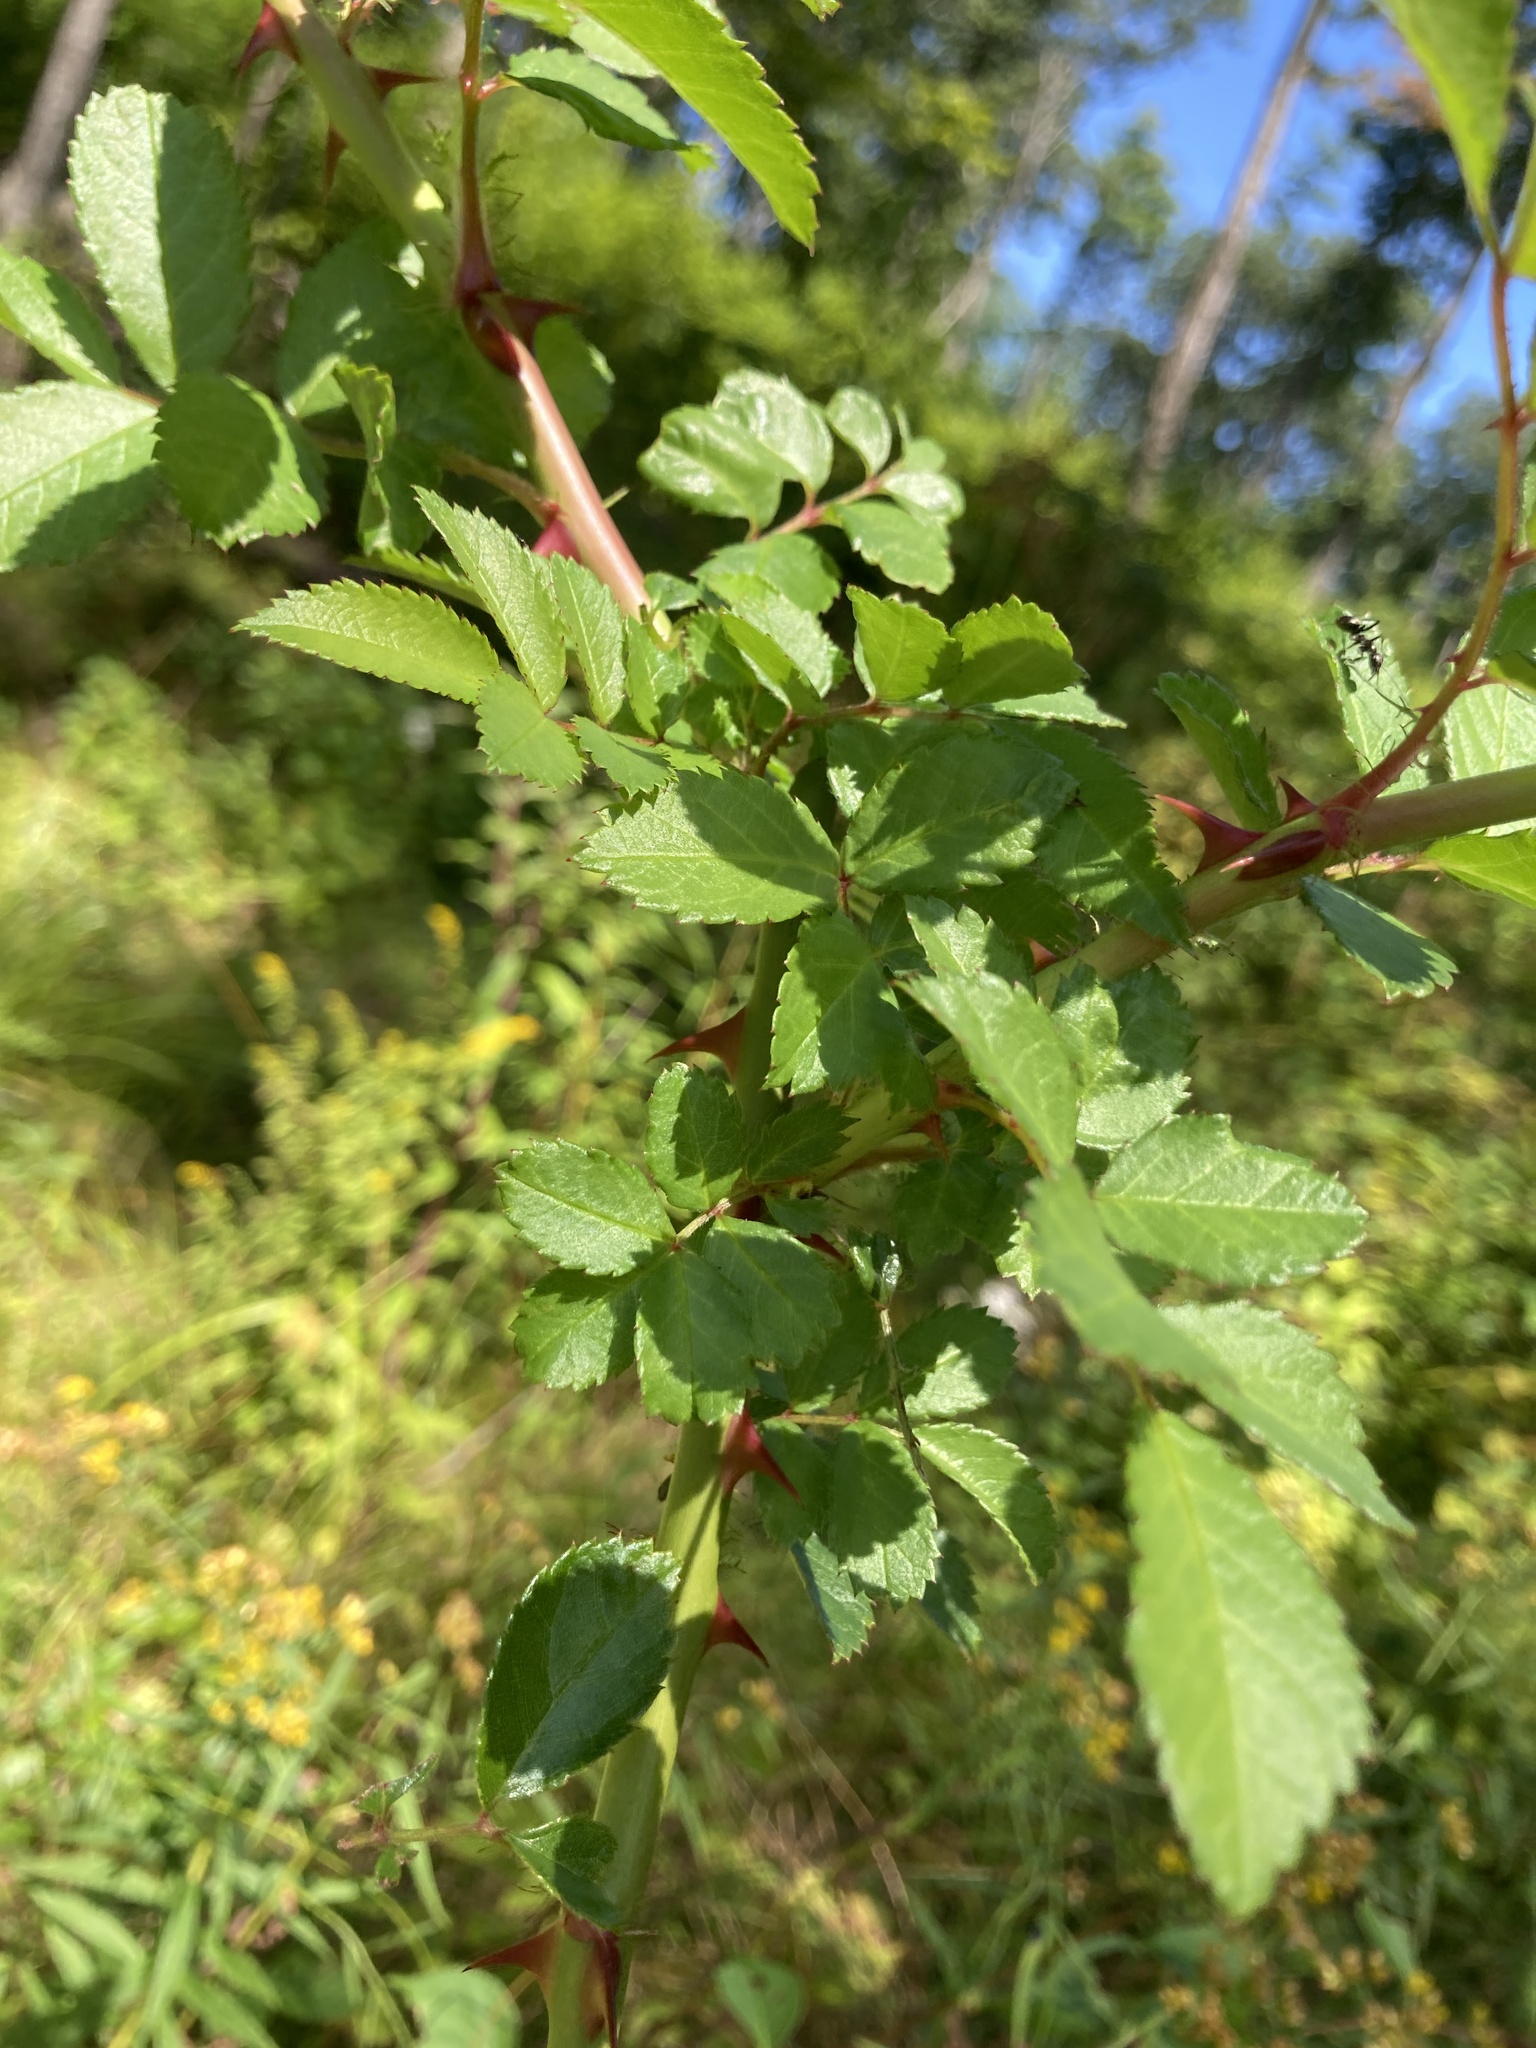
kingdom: Plantae
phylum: Tracheophyta
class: Magnoliopsida
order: Rosales
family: Rosaceae
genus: Rosa
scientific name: Rosa multiflora
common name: Multiflora rose
